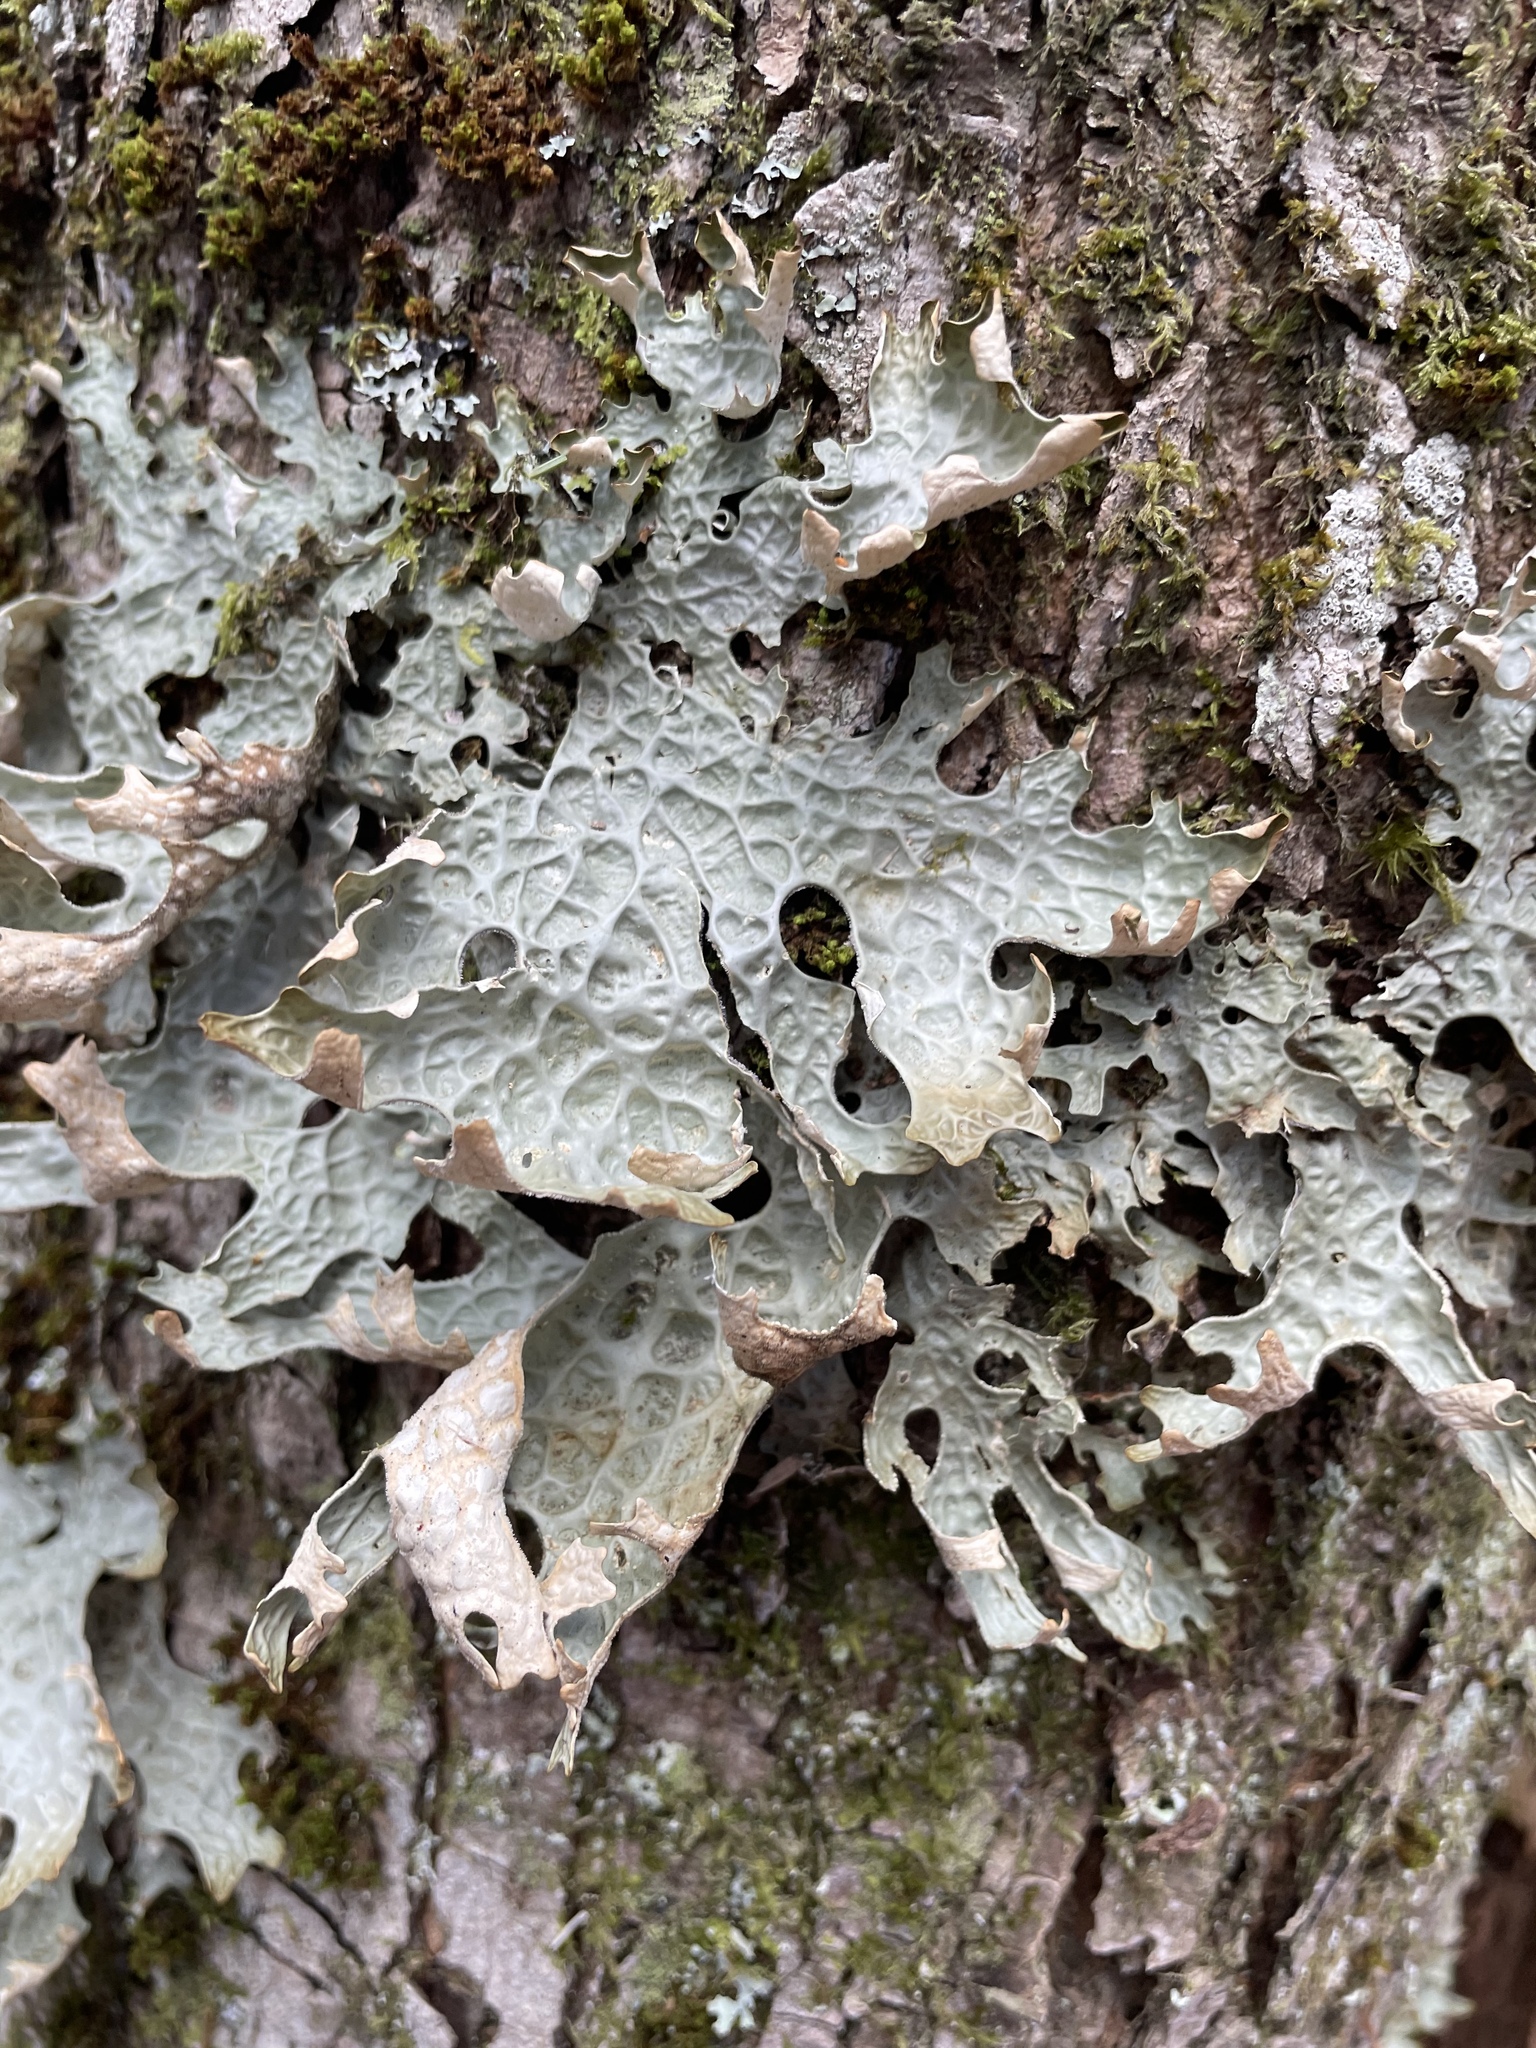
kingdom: Fungi
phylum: Ascomycota
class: Lecanoromycetes
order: Peltigerales
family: Lobariaceae
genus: Lobaria
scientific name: Lobaria pulmonaria
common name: Lungwort
